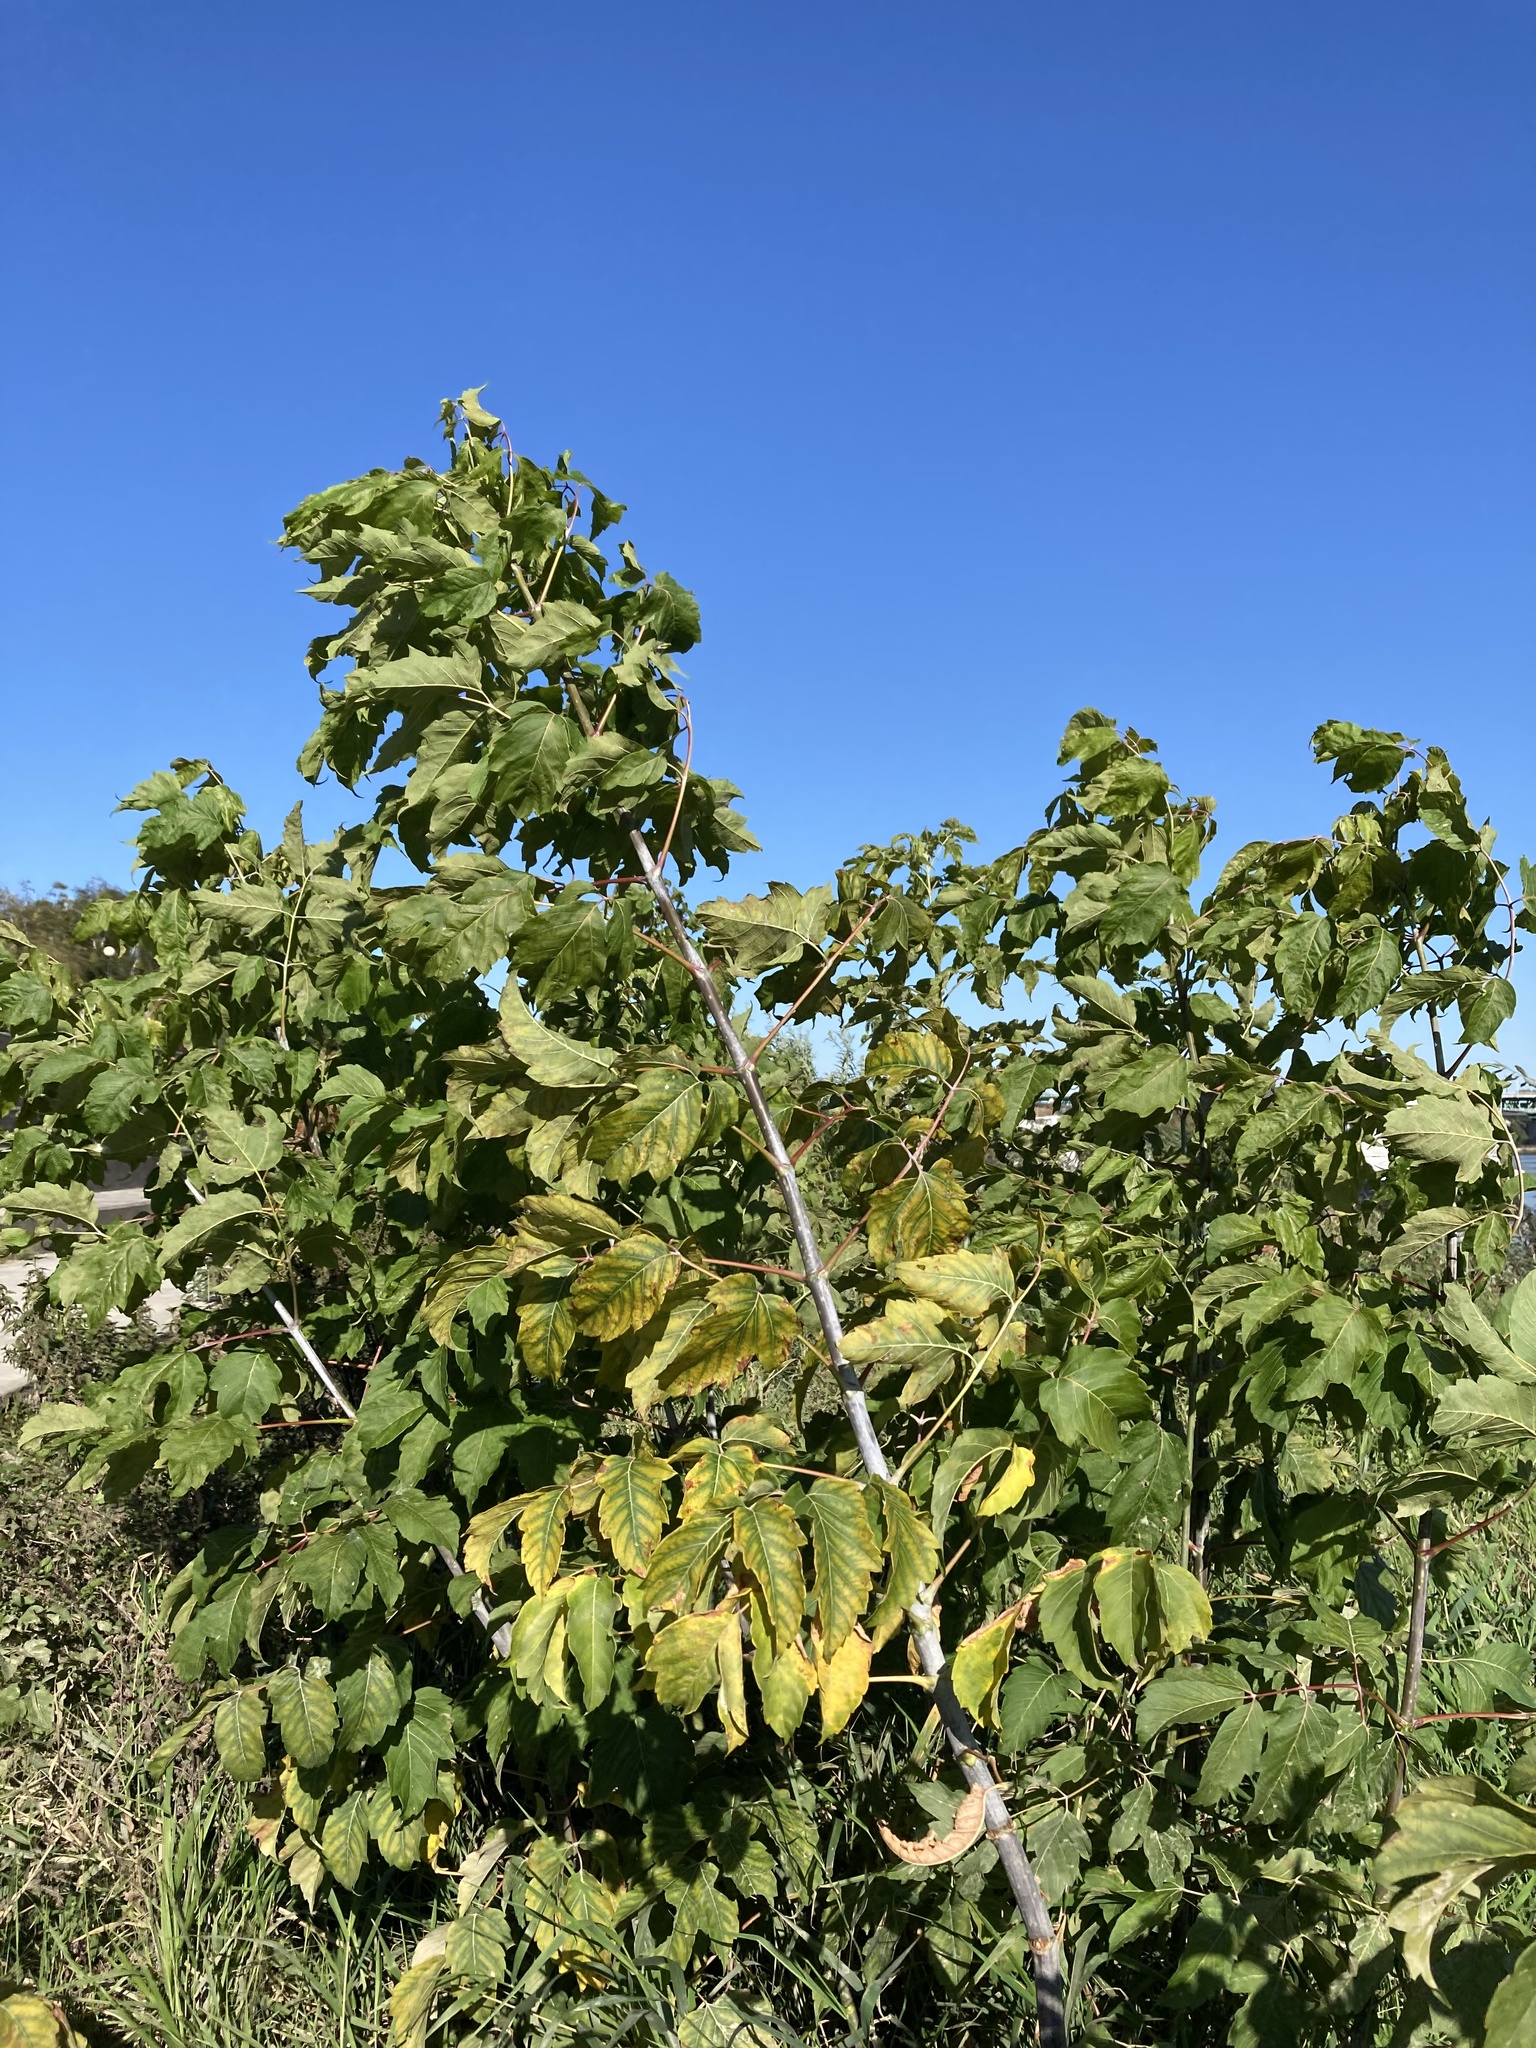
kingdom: Plantae
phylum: Tracheophyta
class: Magnoliopsida
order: Sapindales
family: Sapindaceae
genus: Acer
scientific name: Acer negundo
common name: Ashleaf maple
